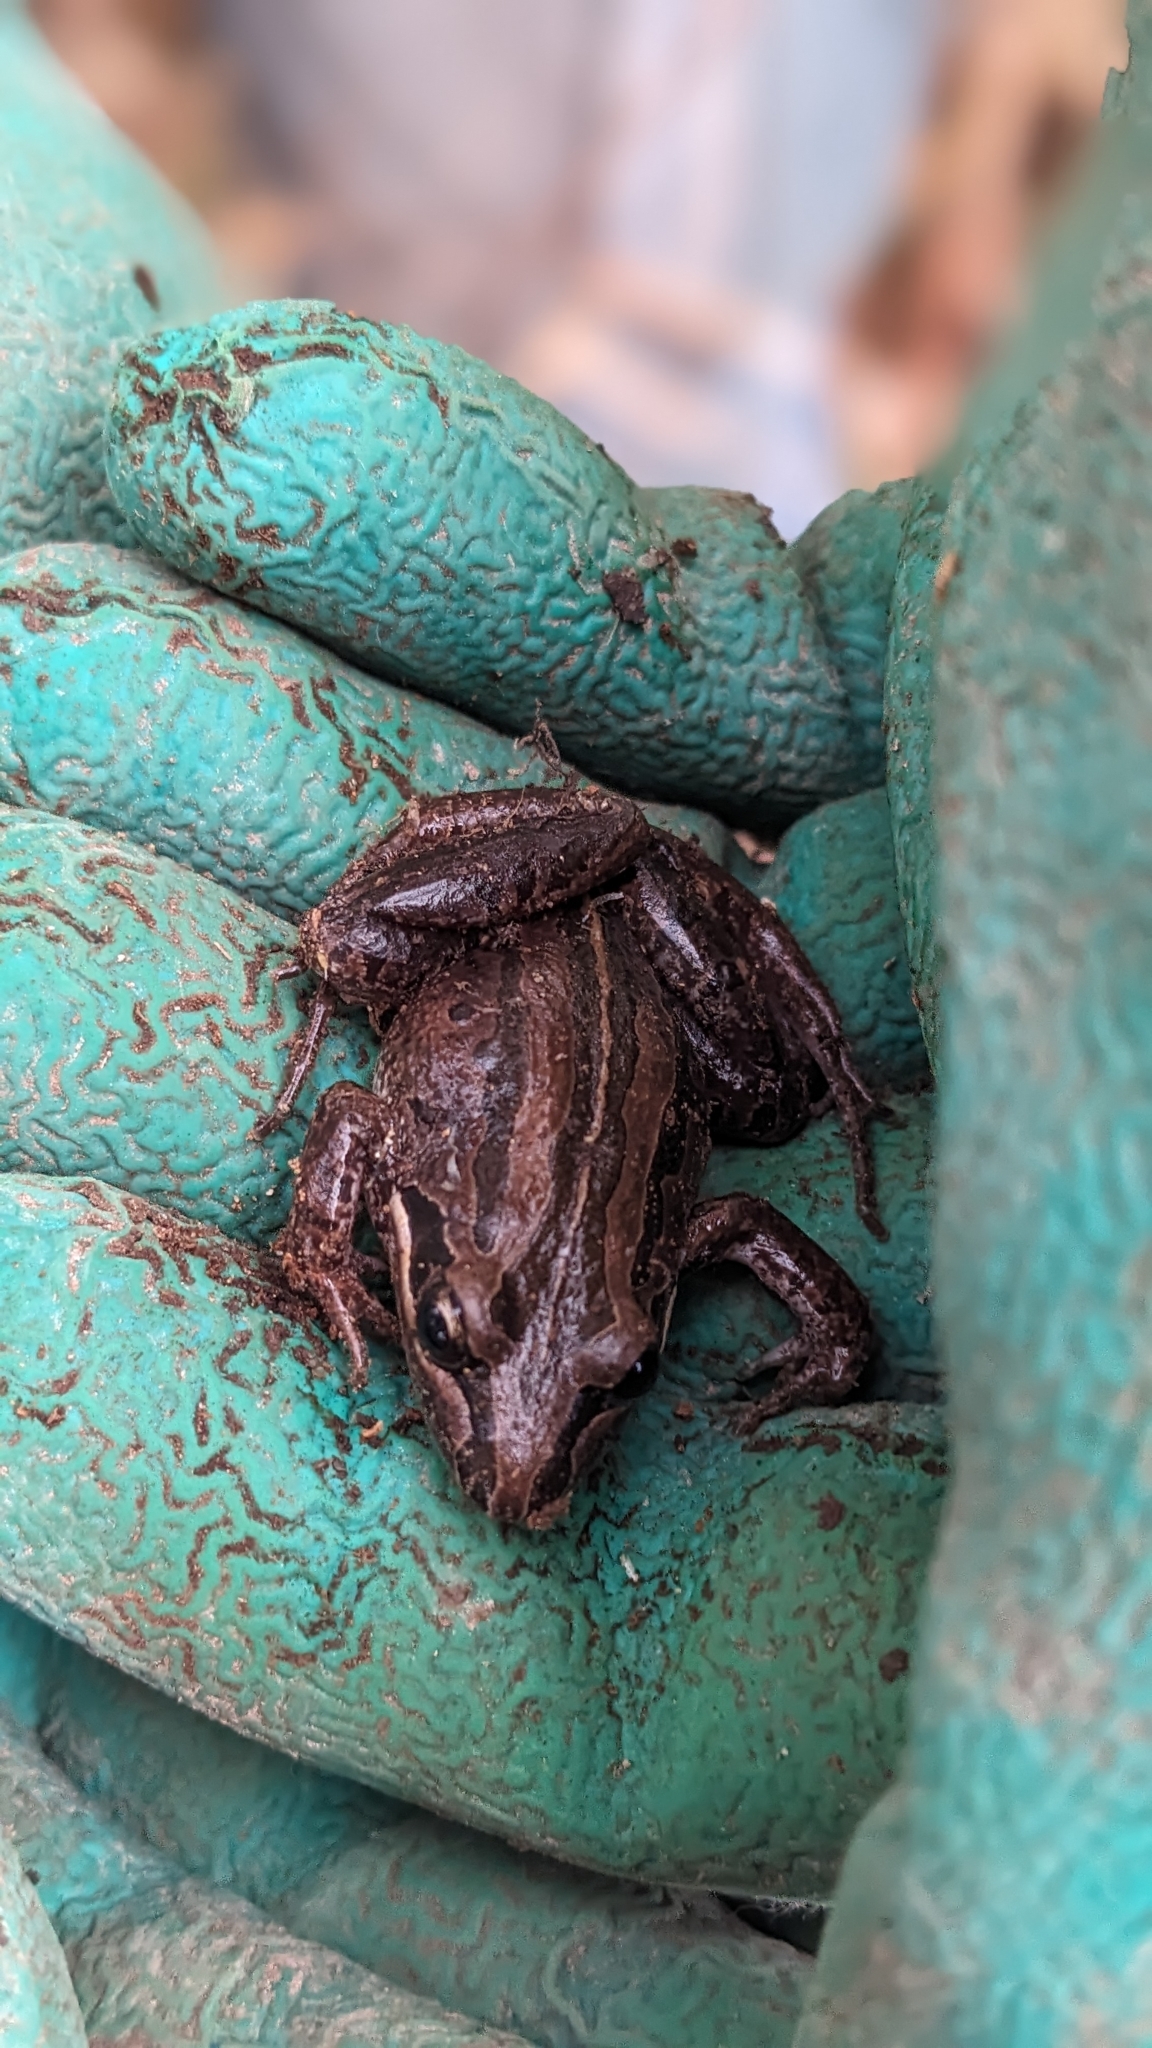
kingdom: Animalia
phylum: Chordata
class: Amphibia
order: Anura
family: Limnodynastidae
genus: Limnodynastes
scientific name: Limnodynastes peronii
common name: Brown frog
